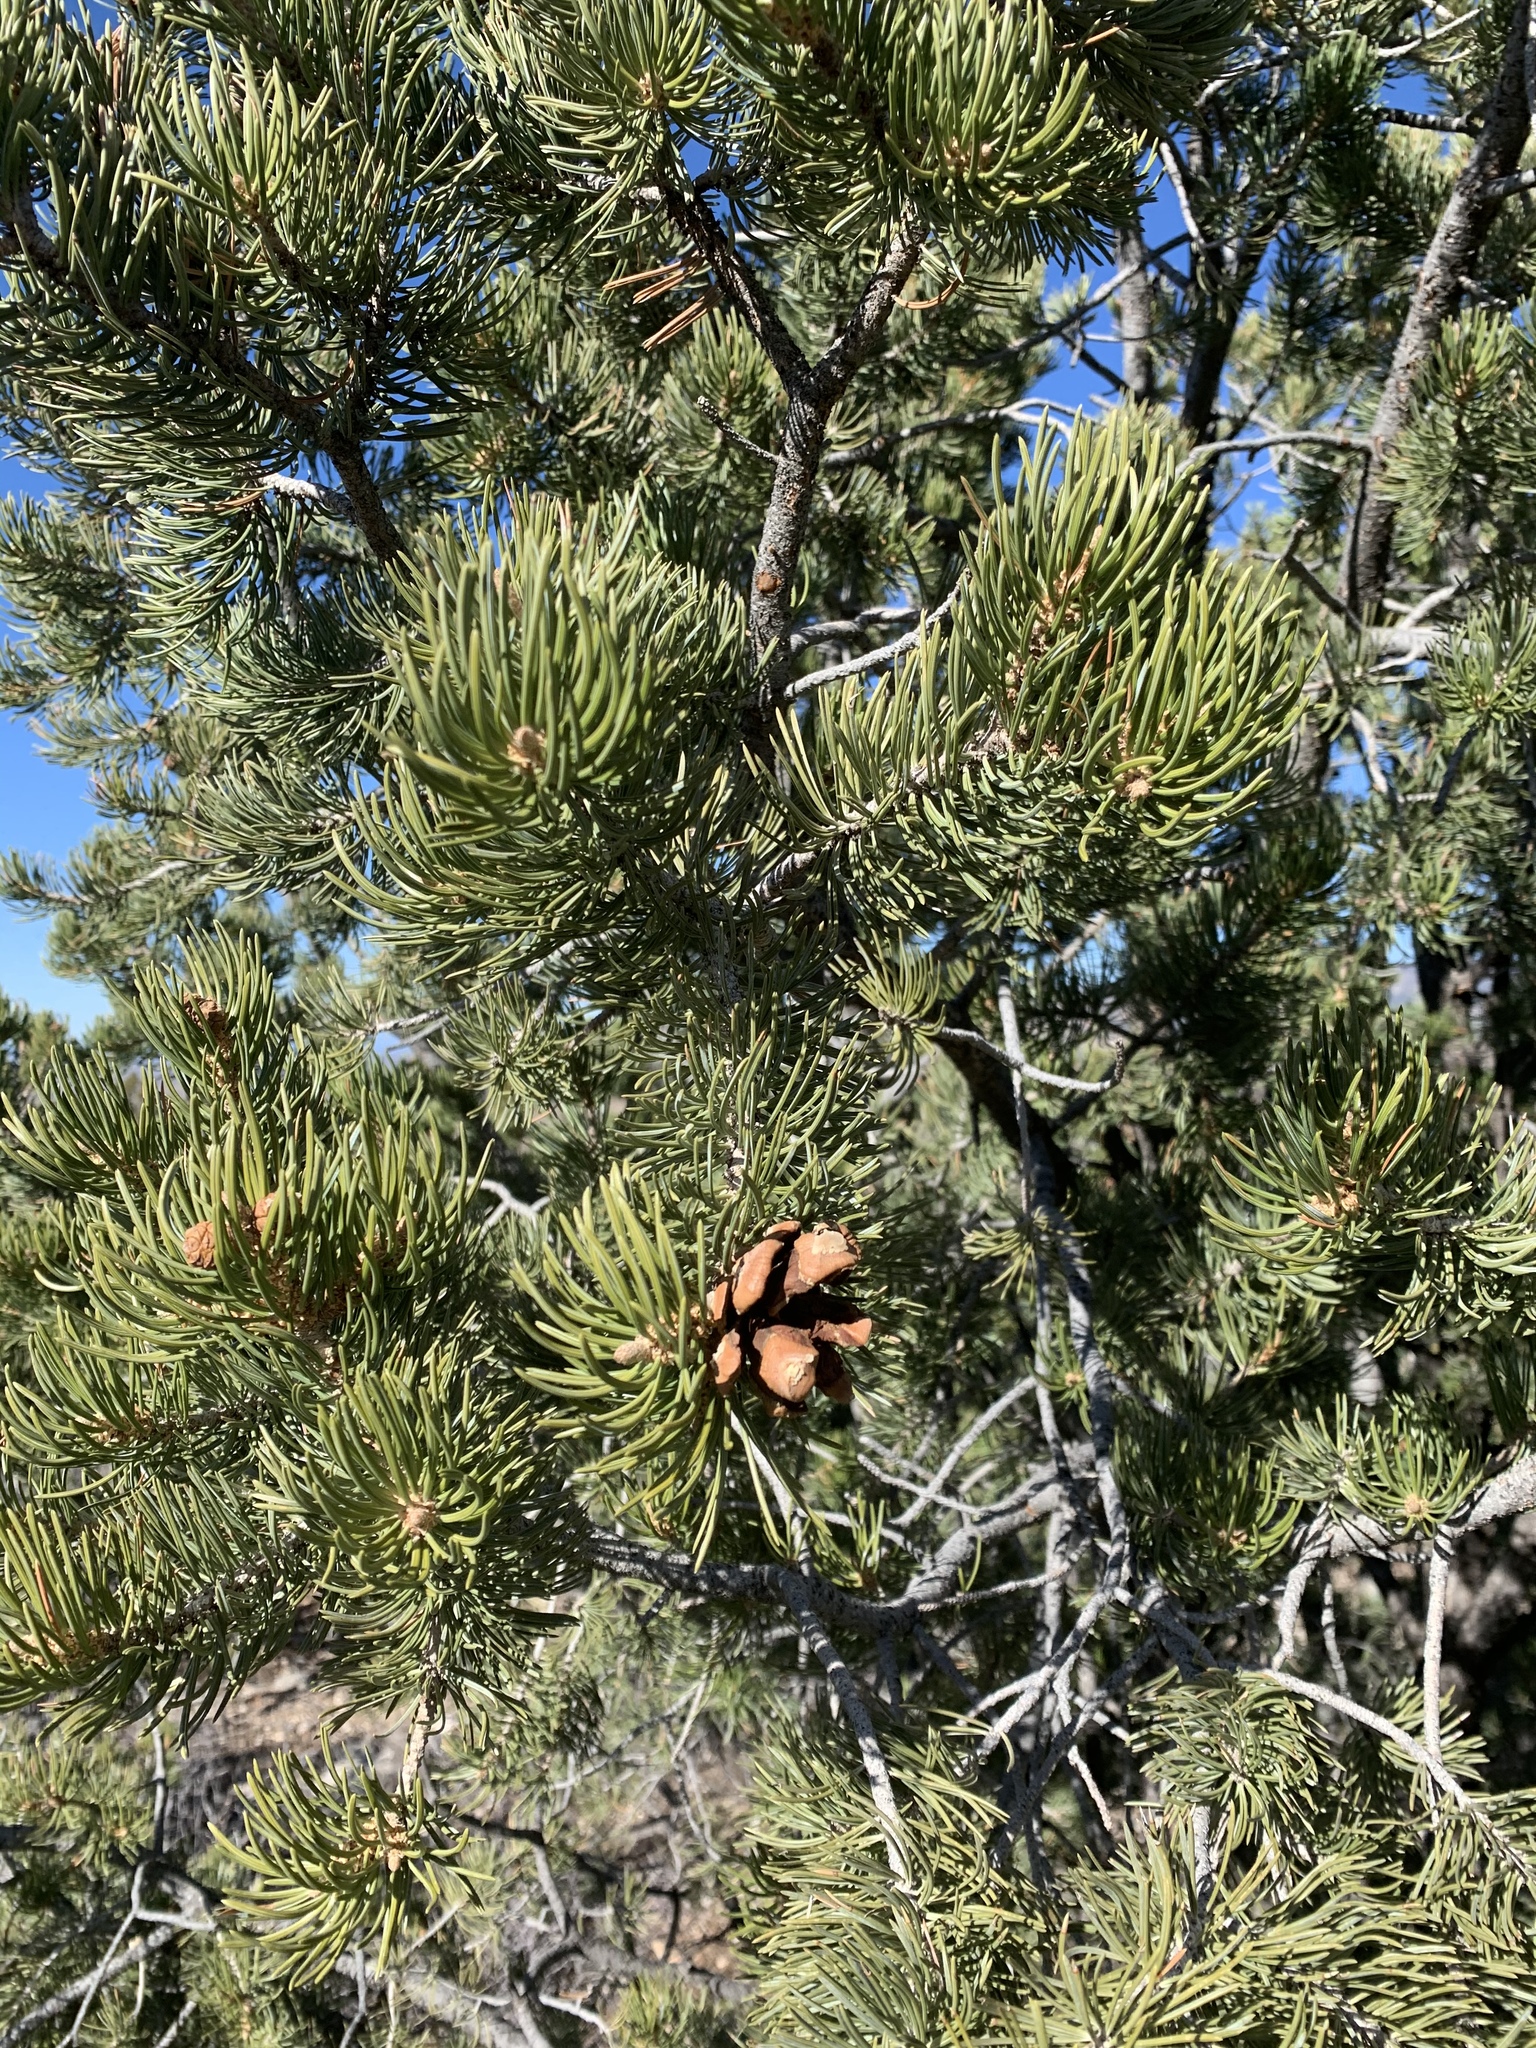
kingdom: Plantae
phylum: Tracheophyta
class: Pinopsida
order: Pinales
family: Pinaceae
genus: Pinus
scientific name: Pinus edulis
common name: Colorado pinyon
